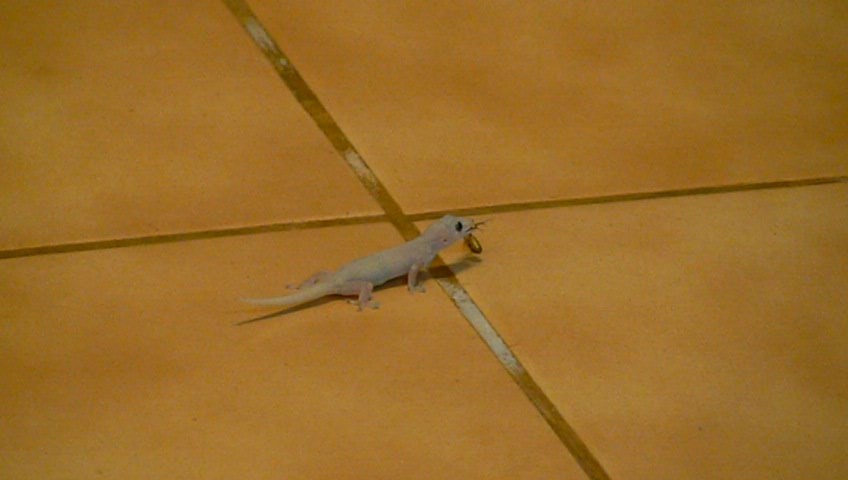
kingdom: Animalia
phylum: Chordata
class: Squamata
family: Gekkonidae
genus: Hemidactylus
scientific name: Hemidactylus frenatus
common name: Common house gecko
